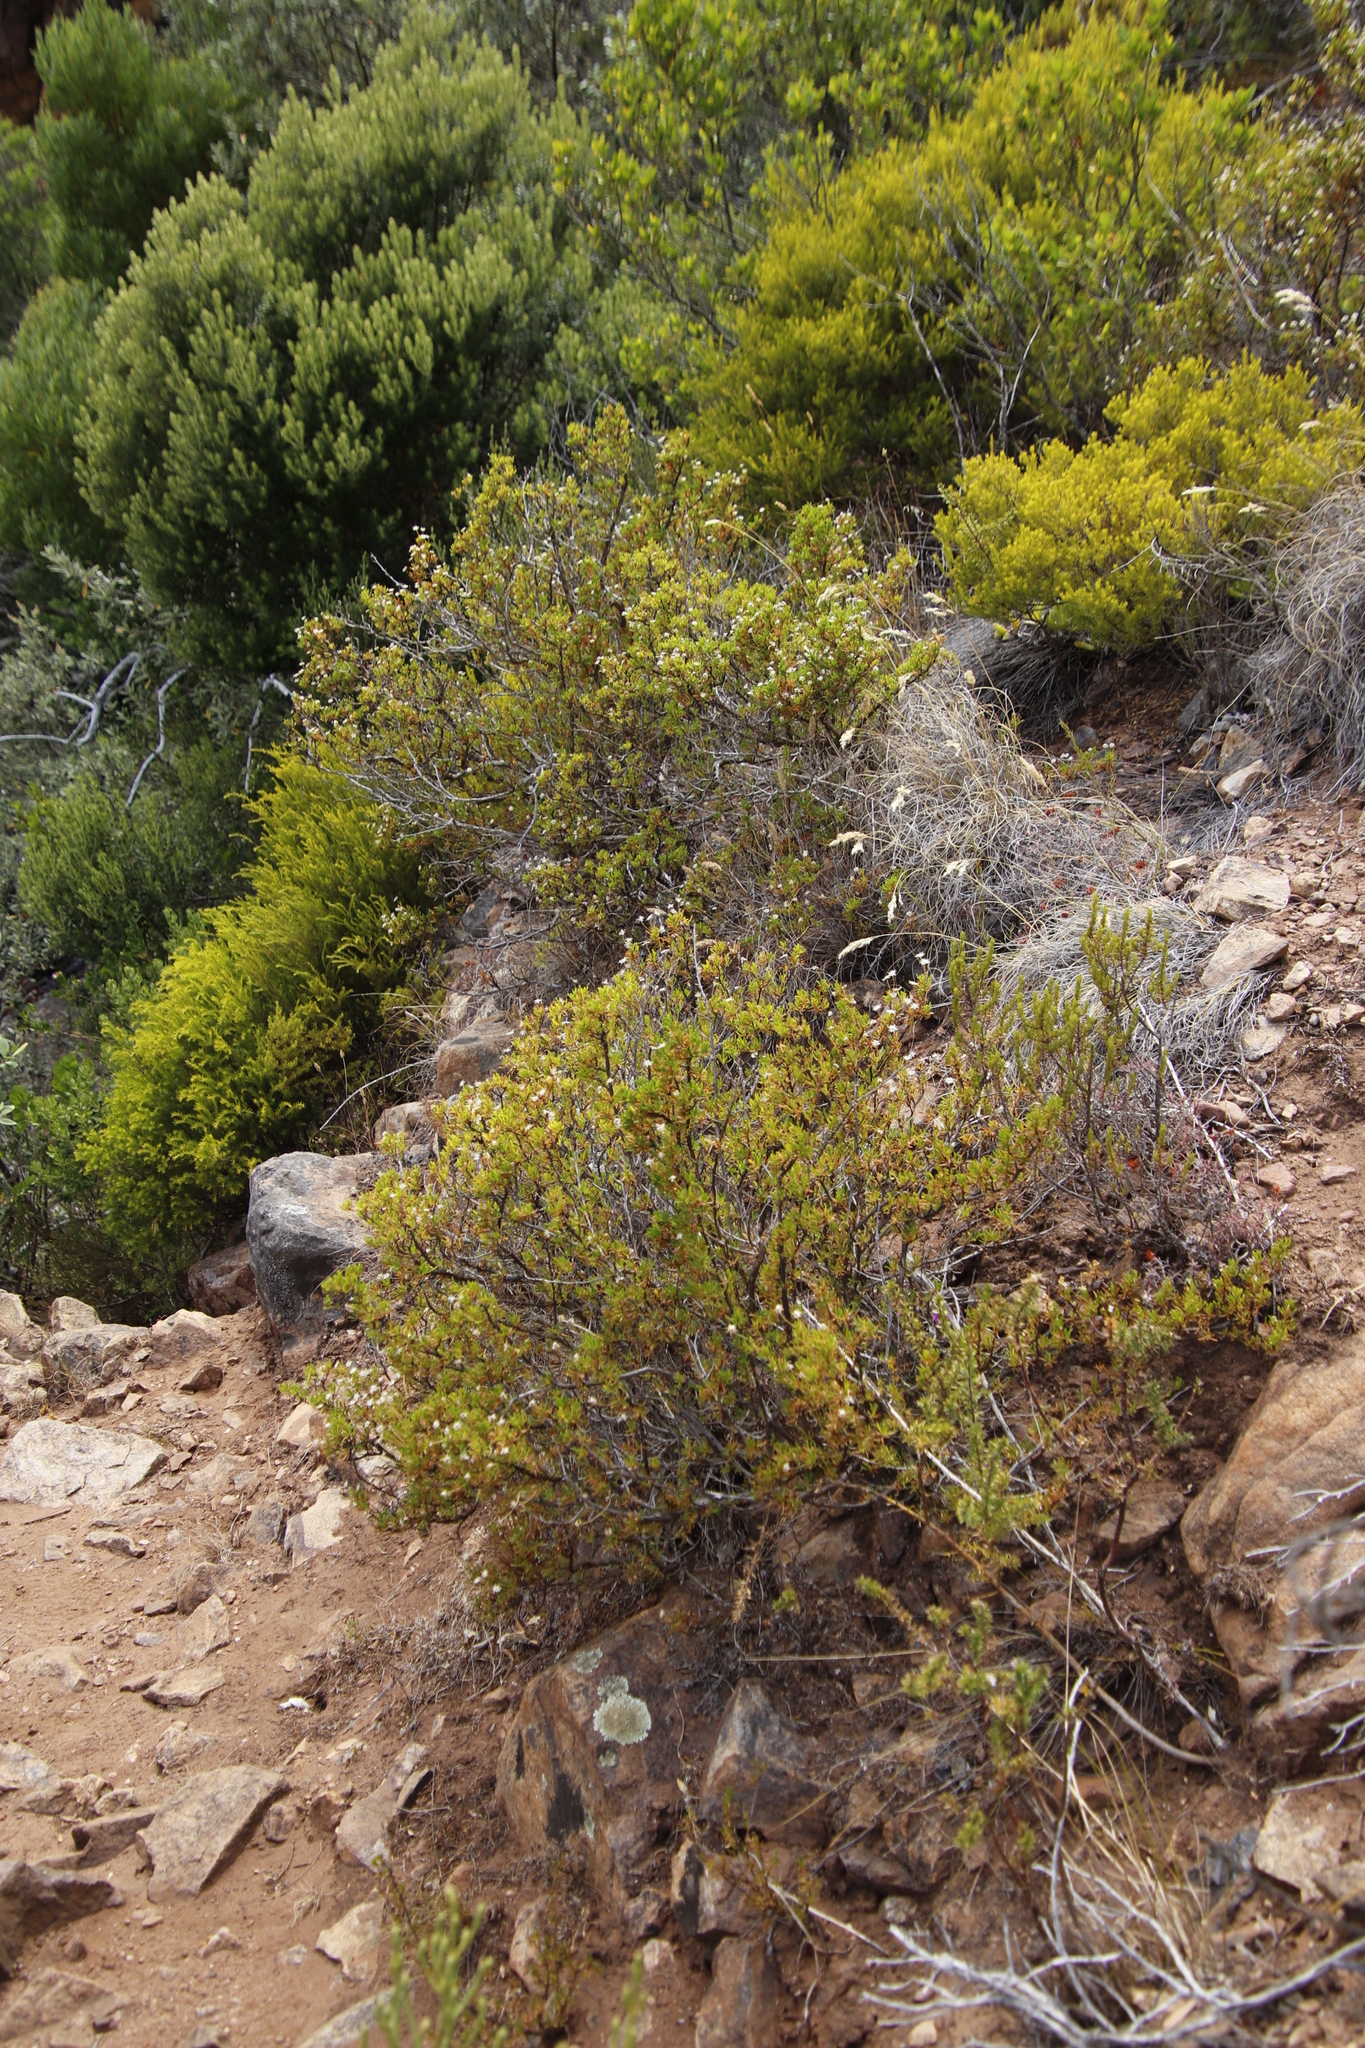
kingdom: Plantae
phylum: Tracheophyta
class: Magnoliopsida
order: Asterales
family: Asteraceae
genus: Felicia
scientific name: Felicia fruticosa
